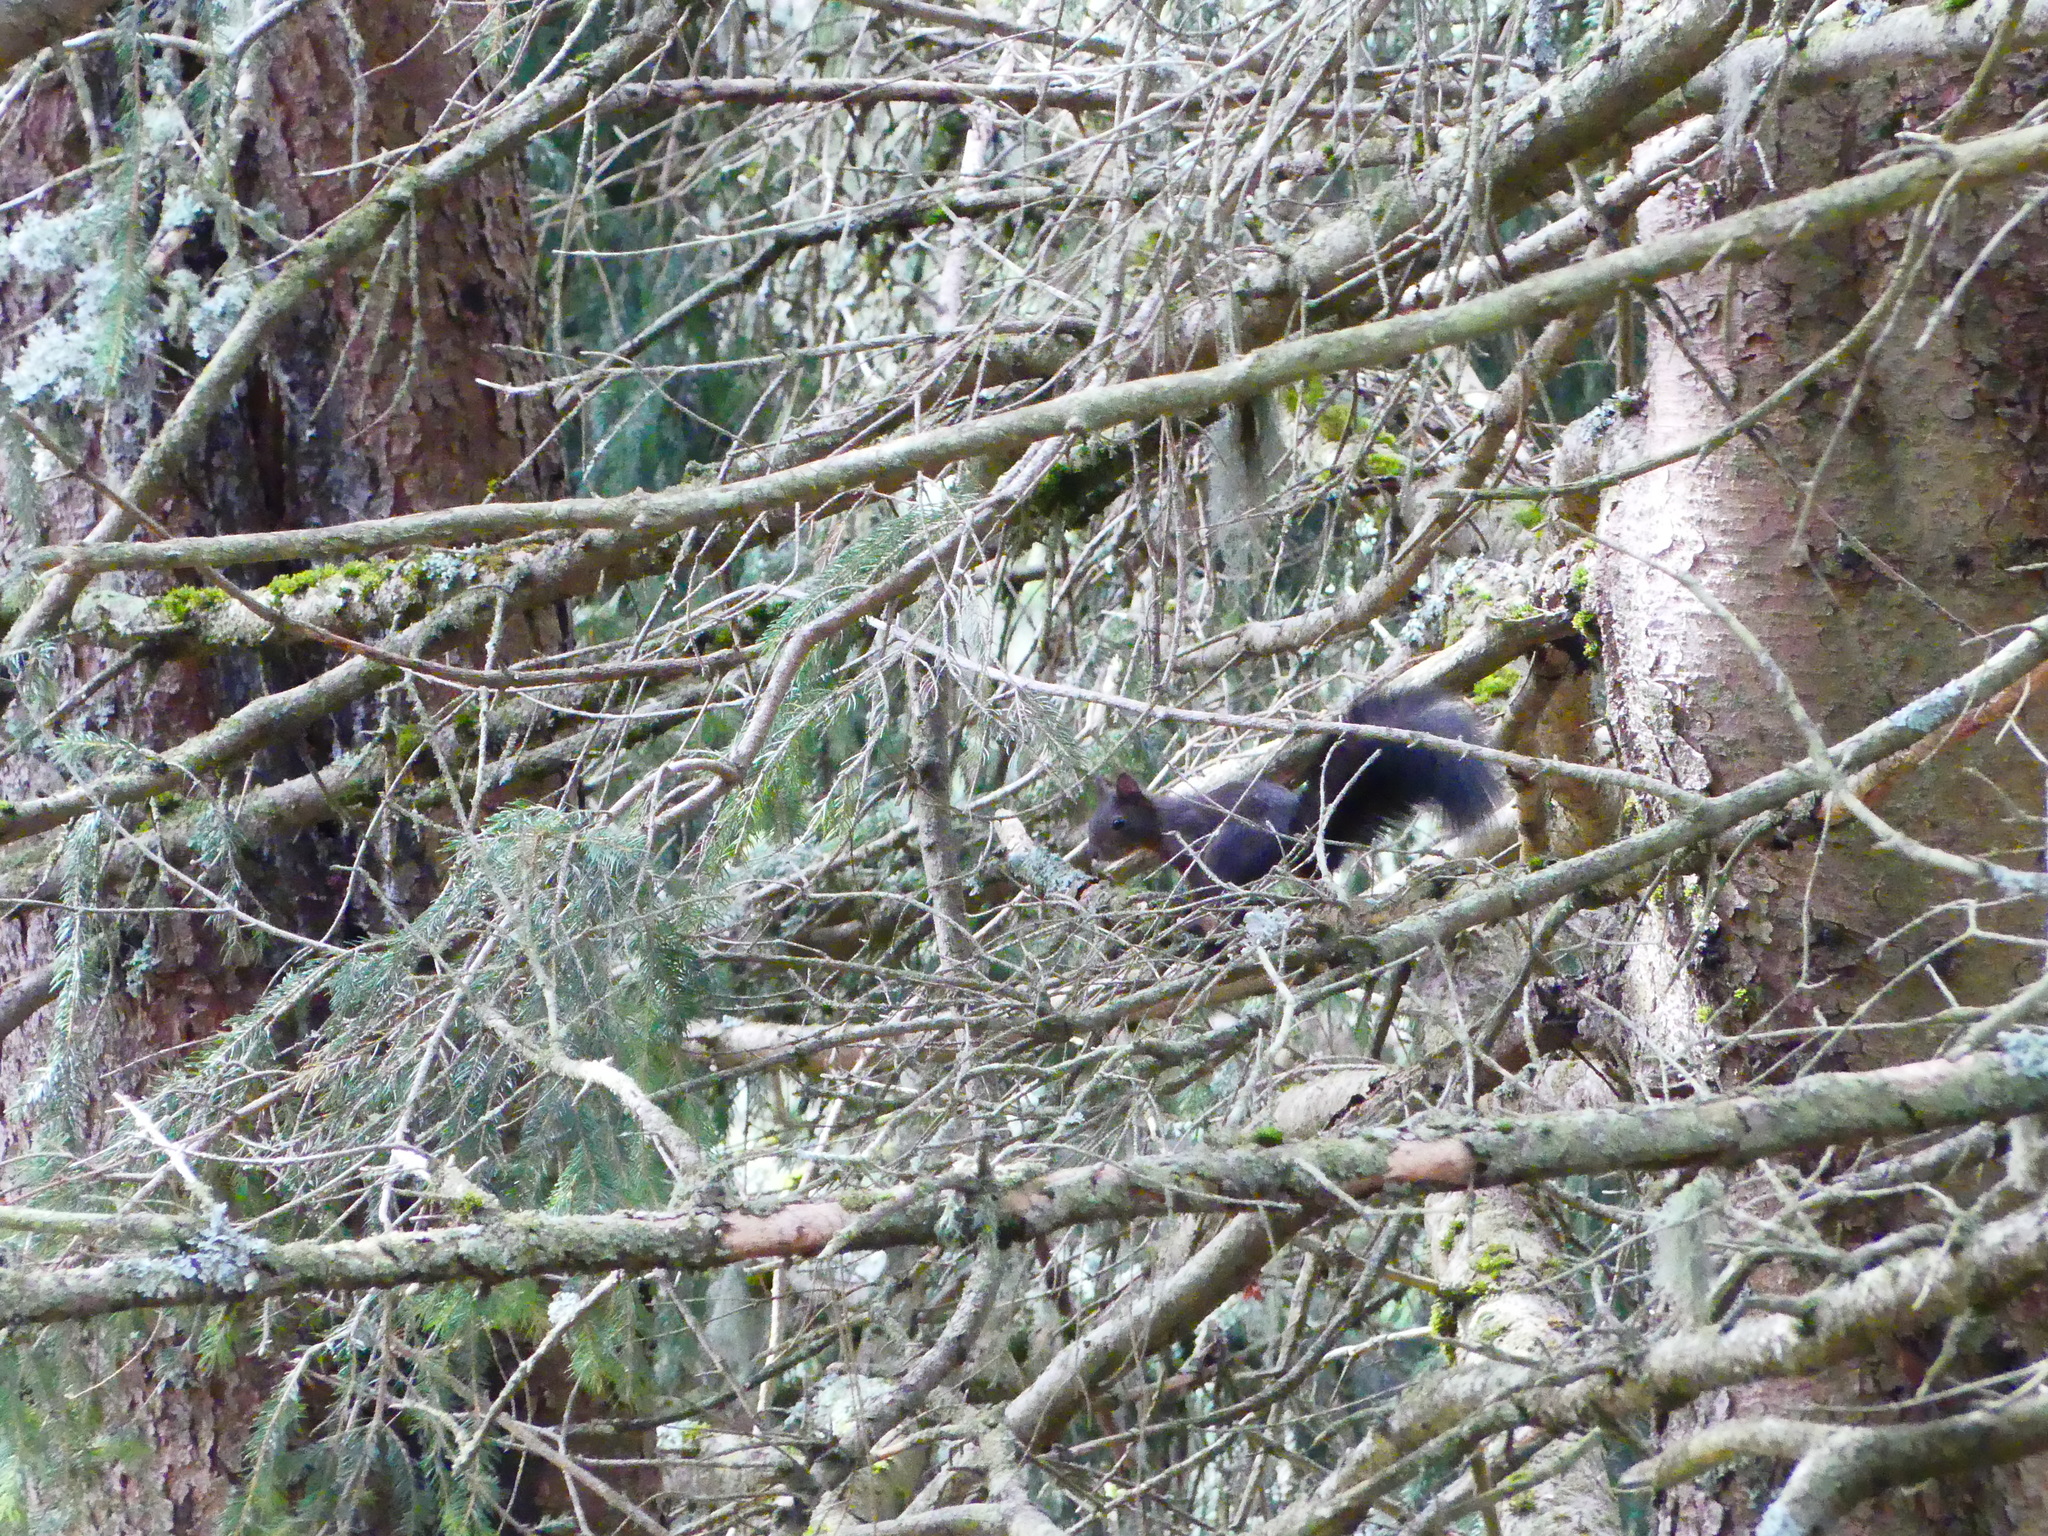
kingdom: Animalia
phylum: Chordata
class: Mammalia
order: Rodentia
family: Sciuridae
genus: Sciurus
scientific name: Sciurus vulgaris
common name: Eurasian red squirrel
